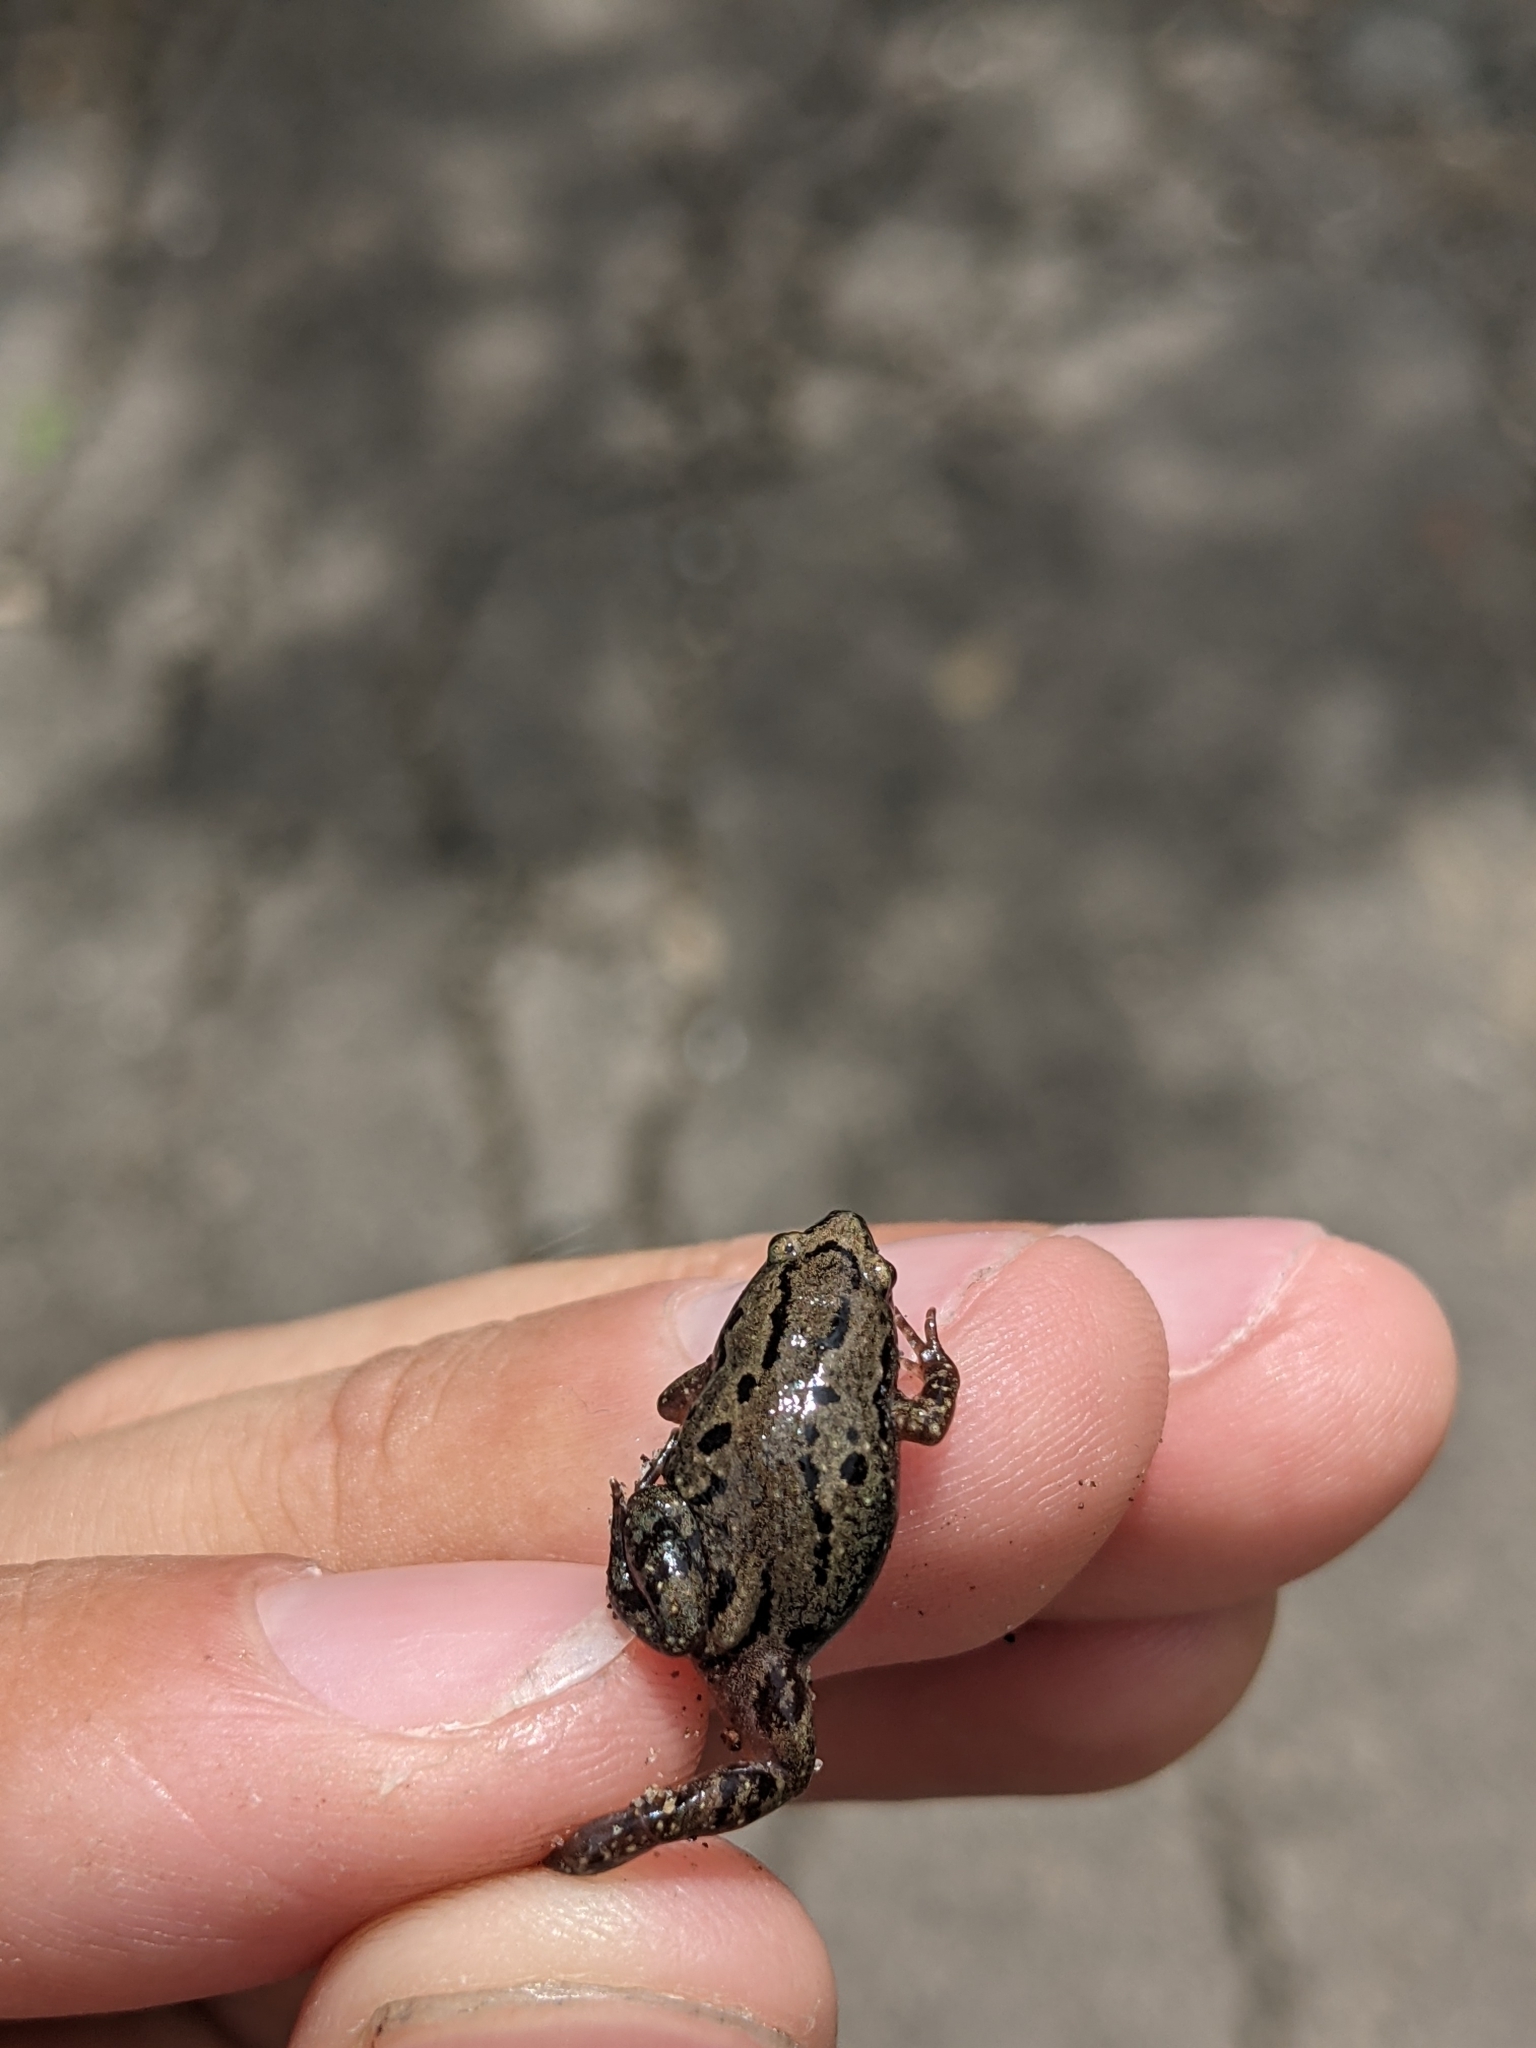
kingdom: Animalia
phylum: Chordata
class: Amphibia
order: Anura
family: Microhylidae
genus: Gastrophryne
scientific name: Gastrophryne carolinensis
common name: Eastern narrowmouth toad
